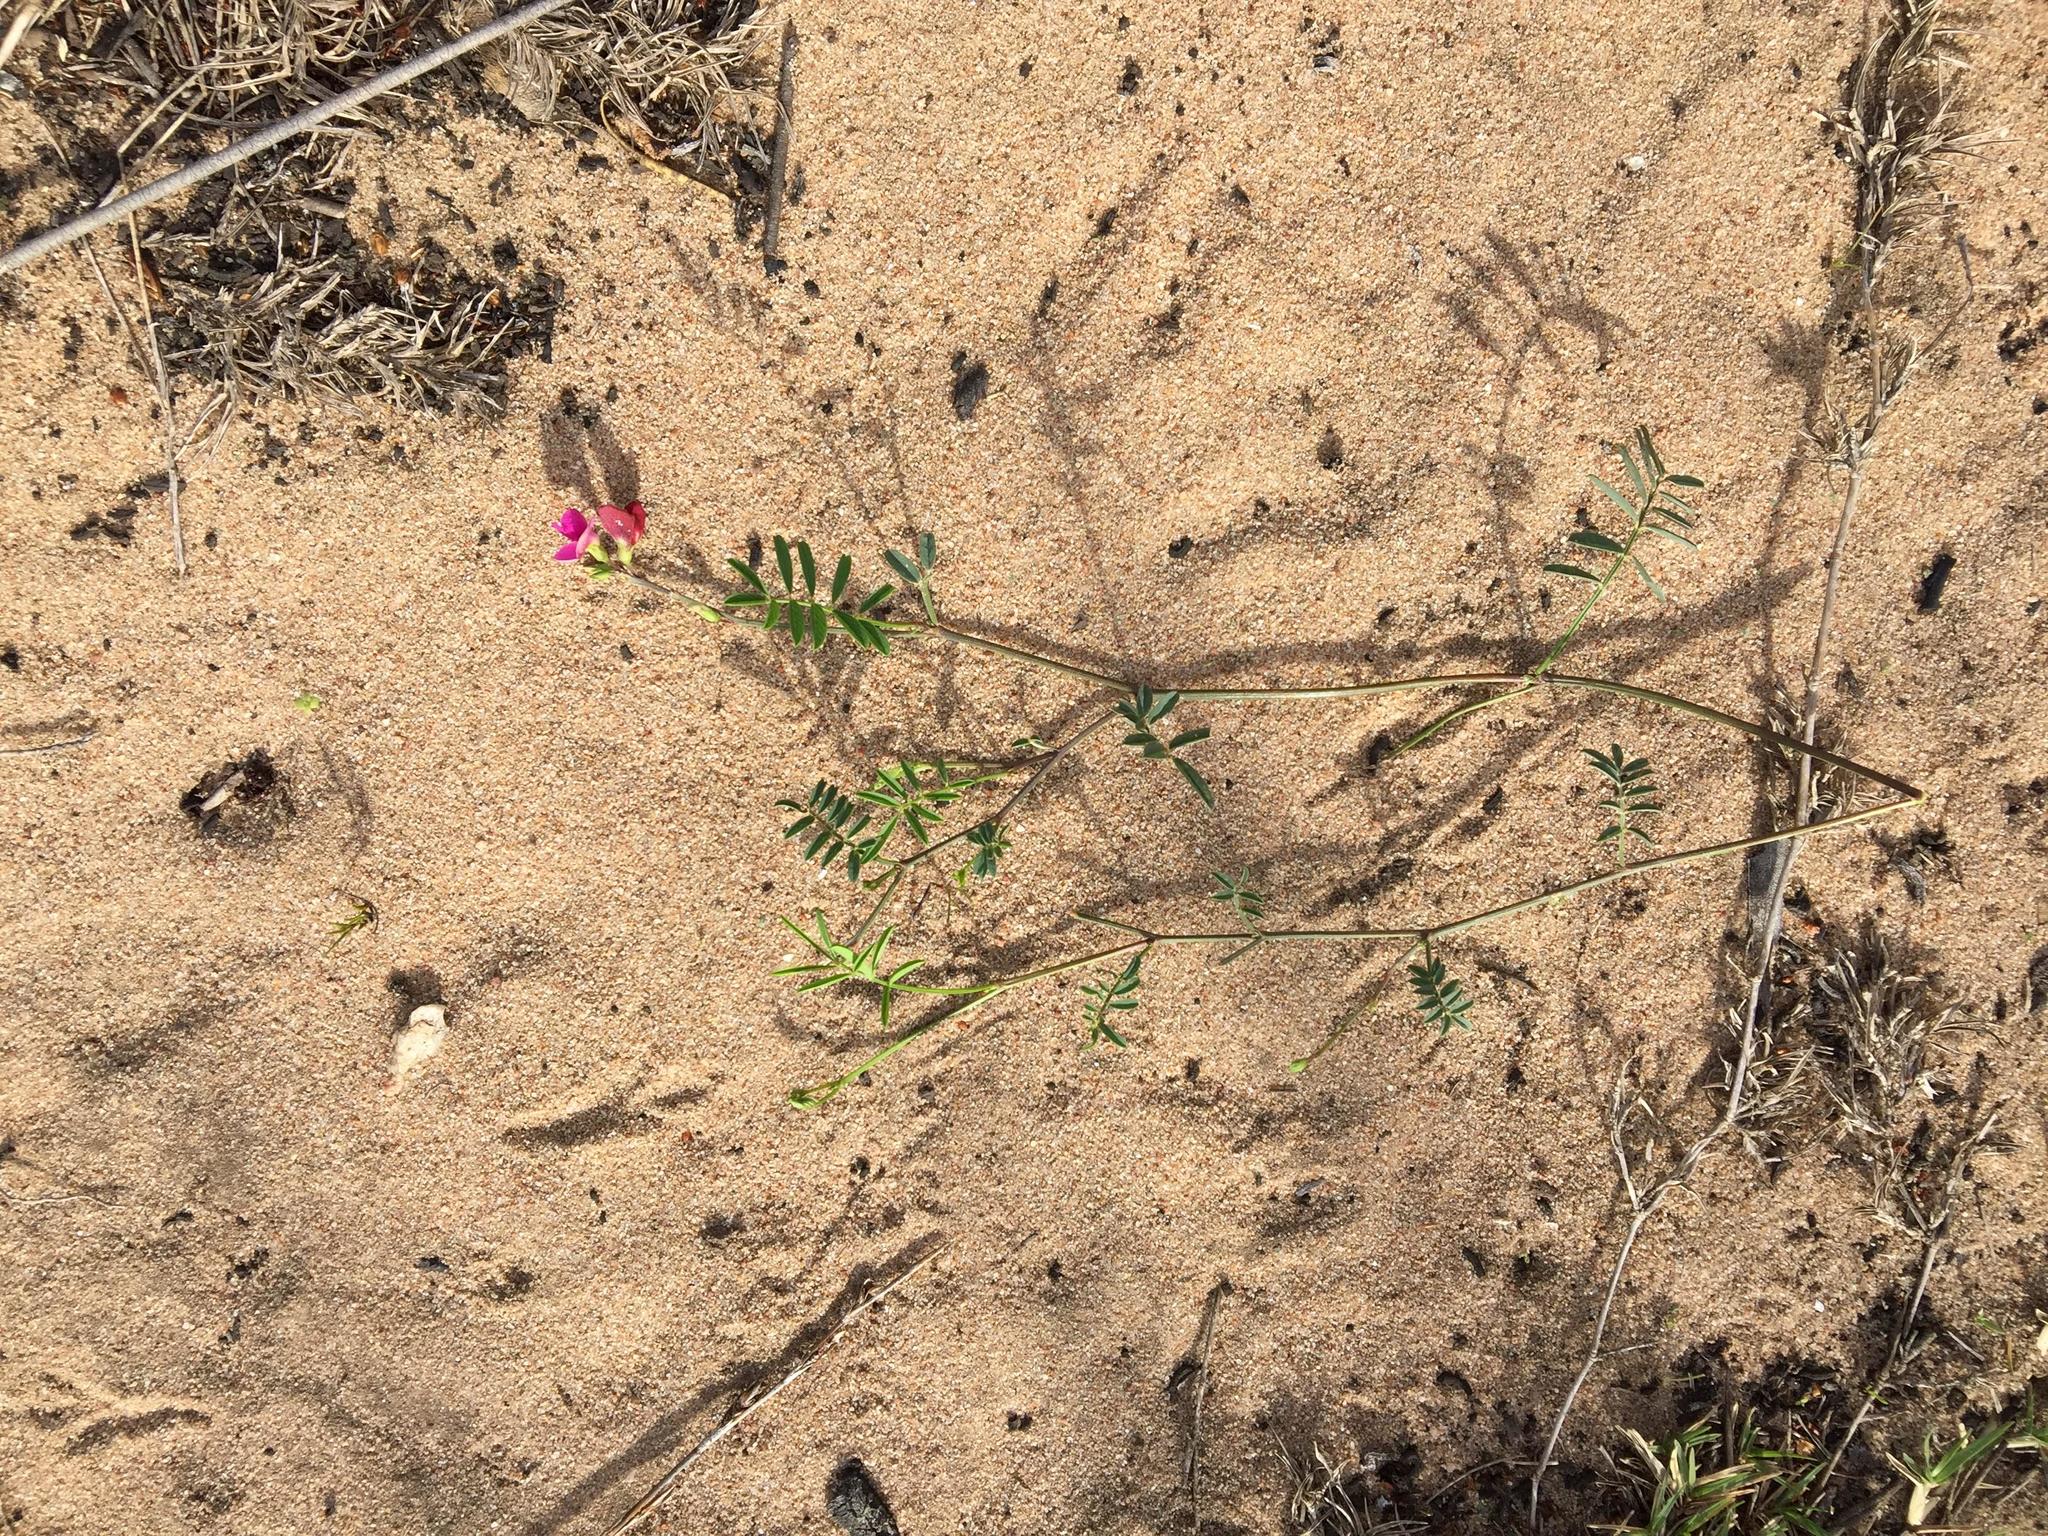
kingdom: Plantae
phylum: Tracheophyta
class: Magnoliopsida
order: Fabales
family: Fabaceae
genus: Tephrosia
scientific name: Tephrosia capensis
